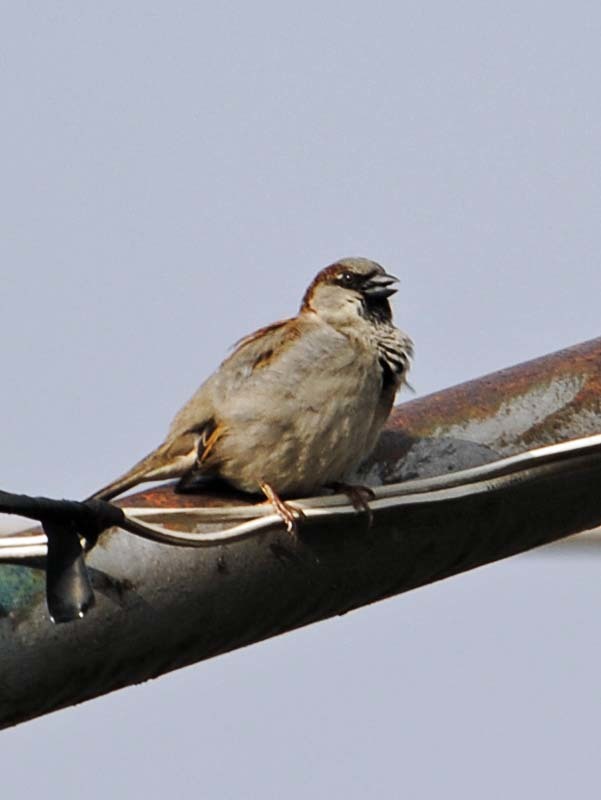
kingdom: Animalia
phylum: Chordata
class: Aves
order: Passeriformes
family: Passeridae
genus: Passer
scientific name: Passer domesticus
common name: House sparrow
